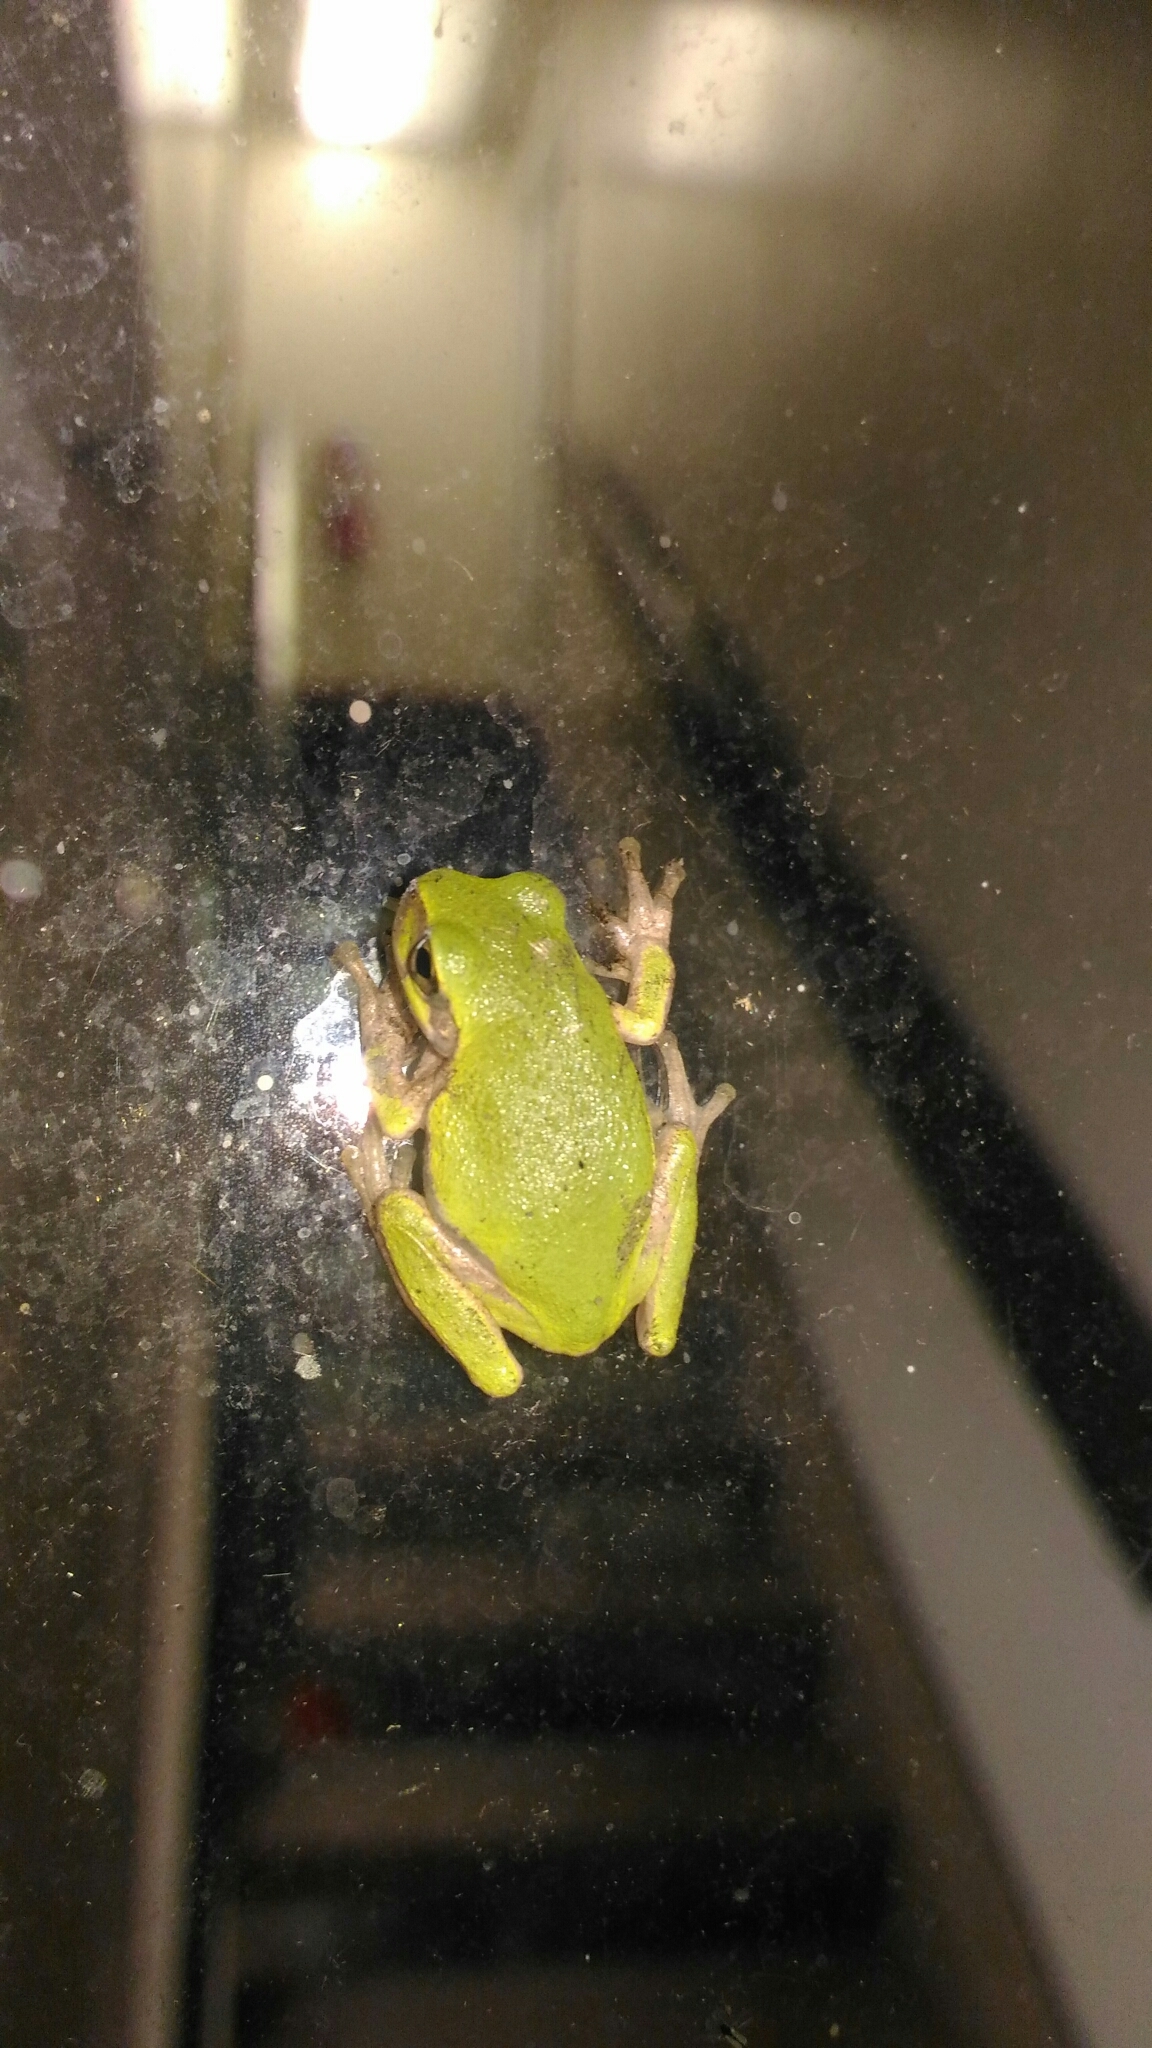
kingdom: Animalia
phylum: Chordata
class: Amphibia
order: Anura
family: Hylidae
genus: Hyla
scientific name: Hyla
